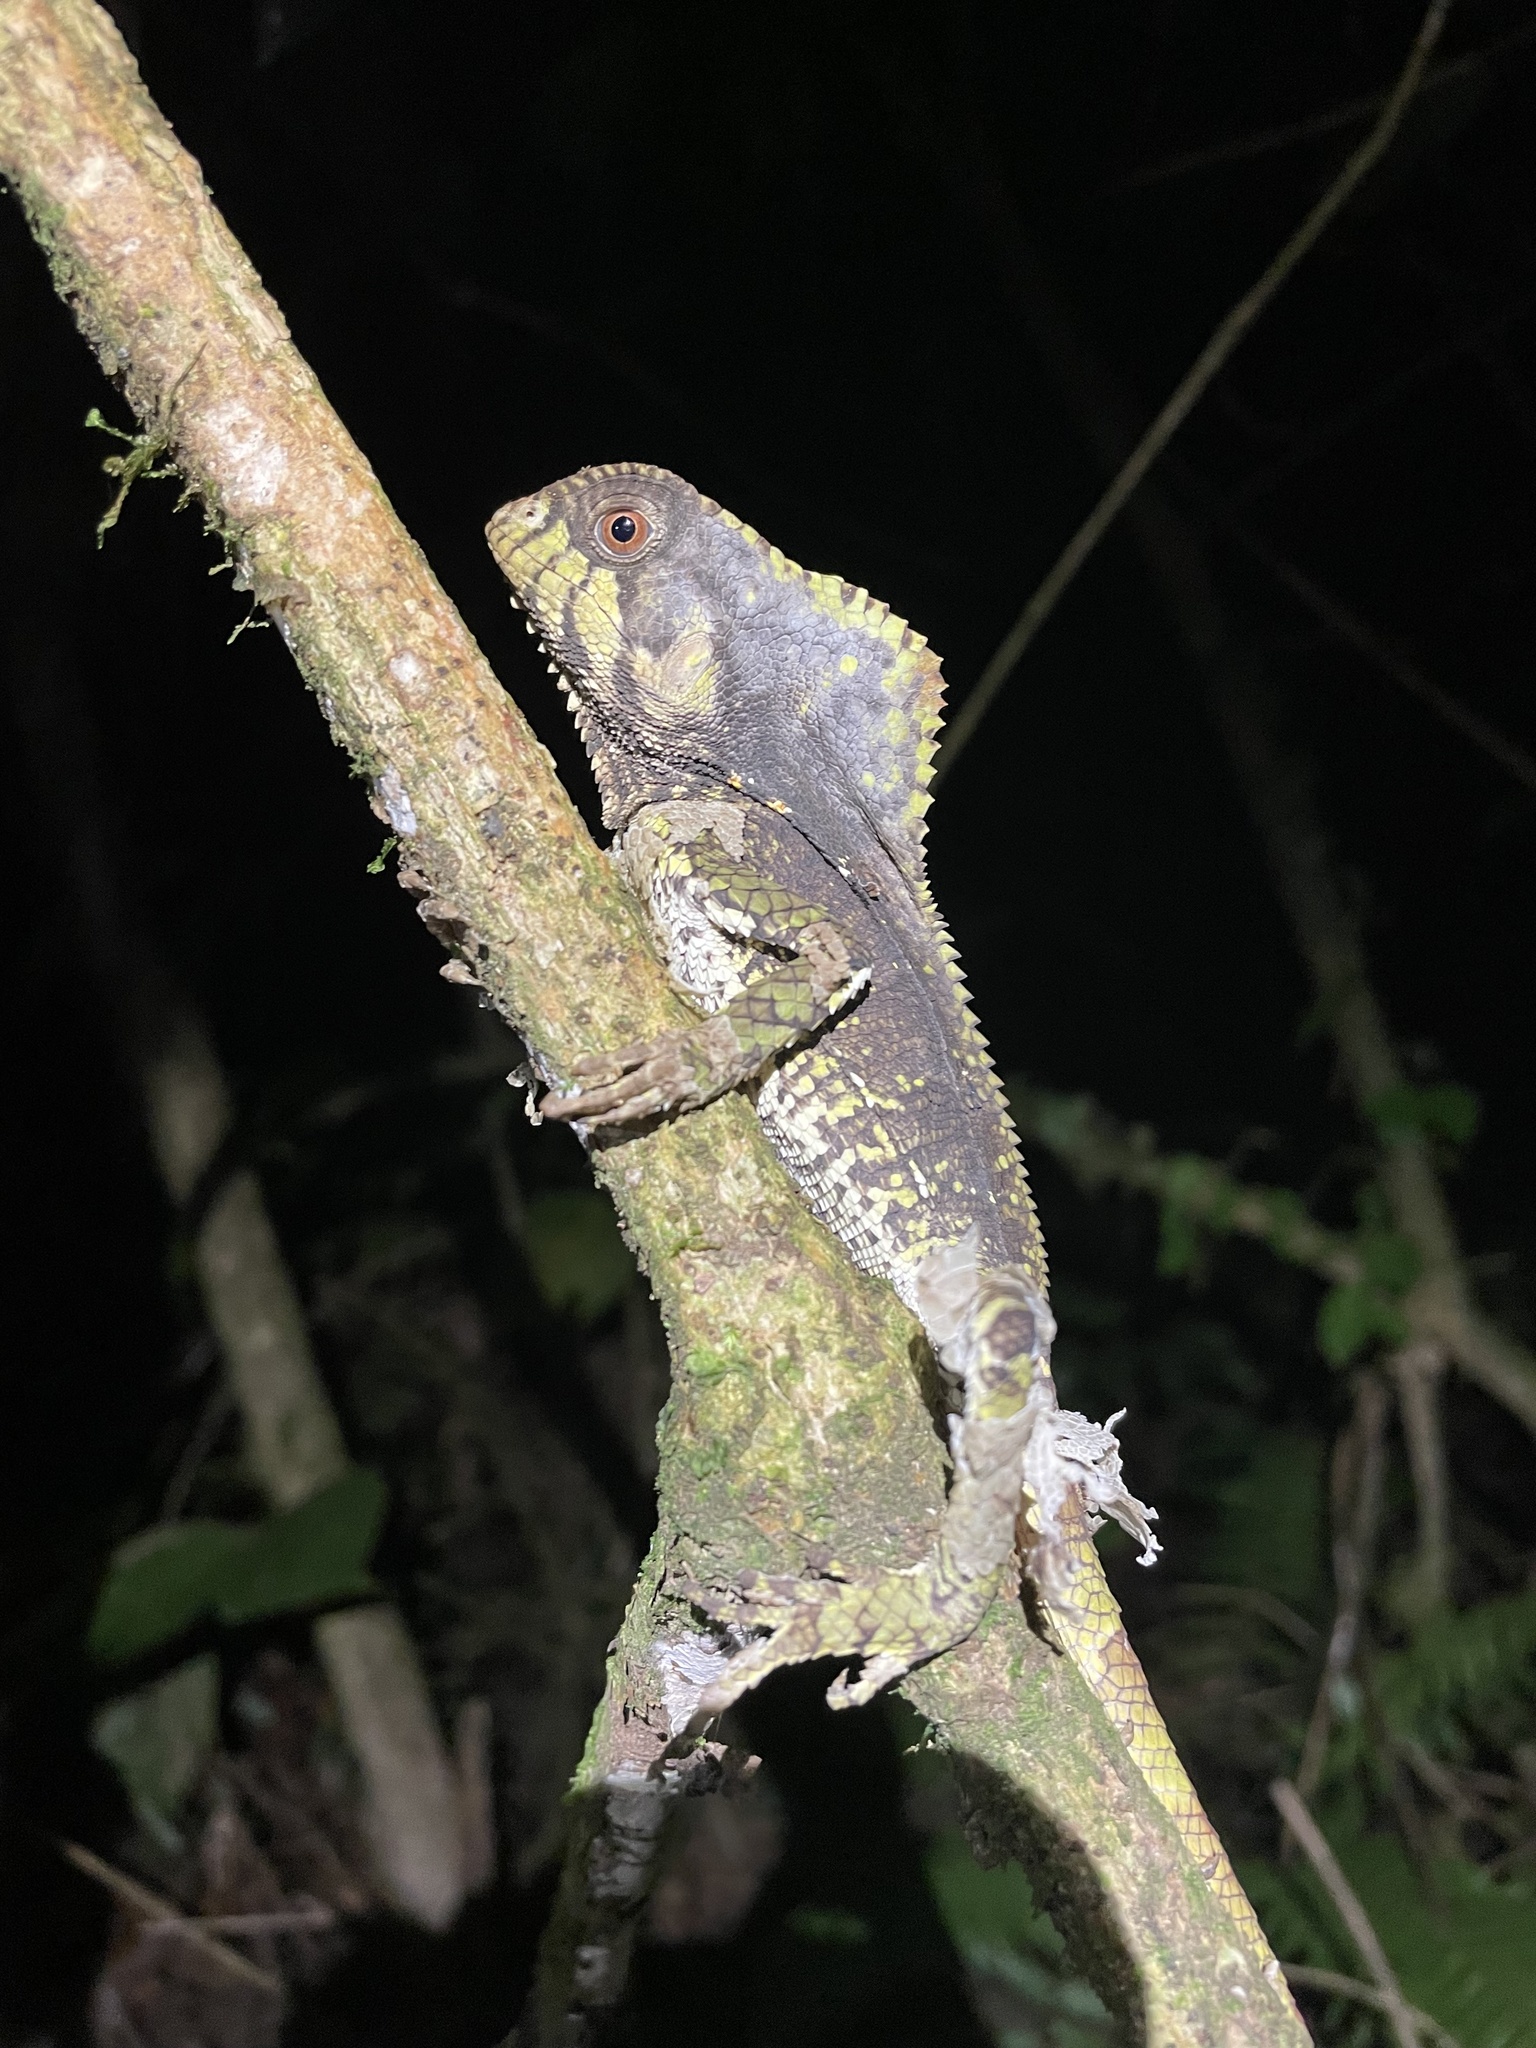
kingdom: Animalia
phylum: Chordata
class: Squamata
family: Corytophanidae
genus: Corytophanes
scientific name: Corytophanes cristatus
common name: Smooth helmeted iguana
